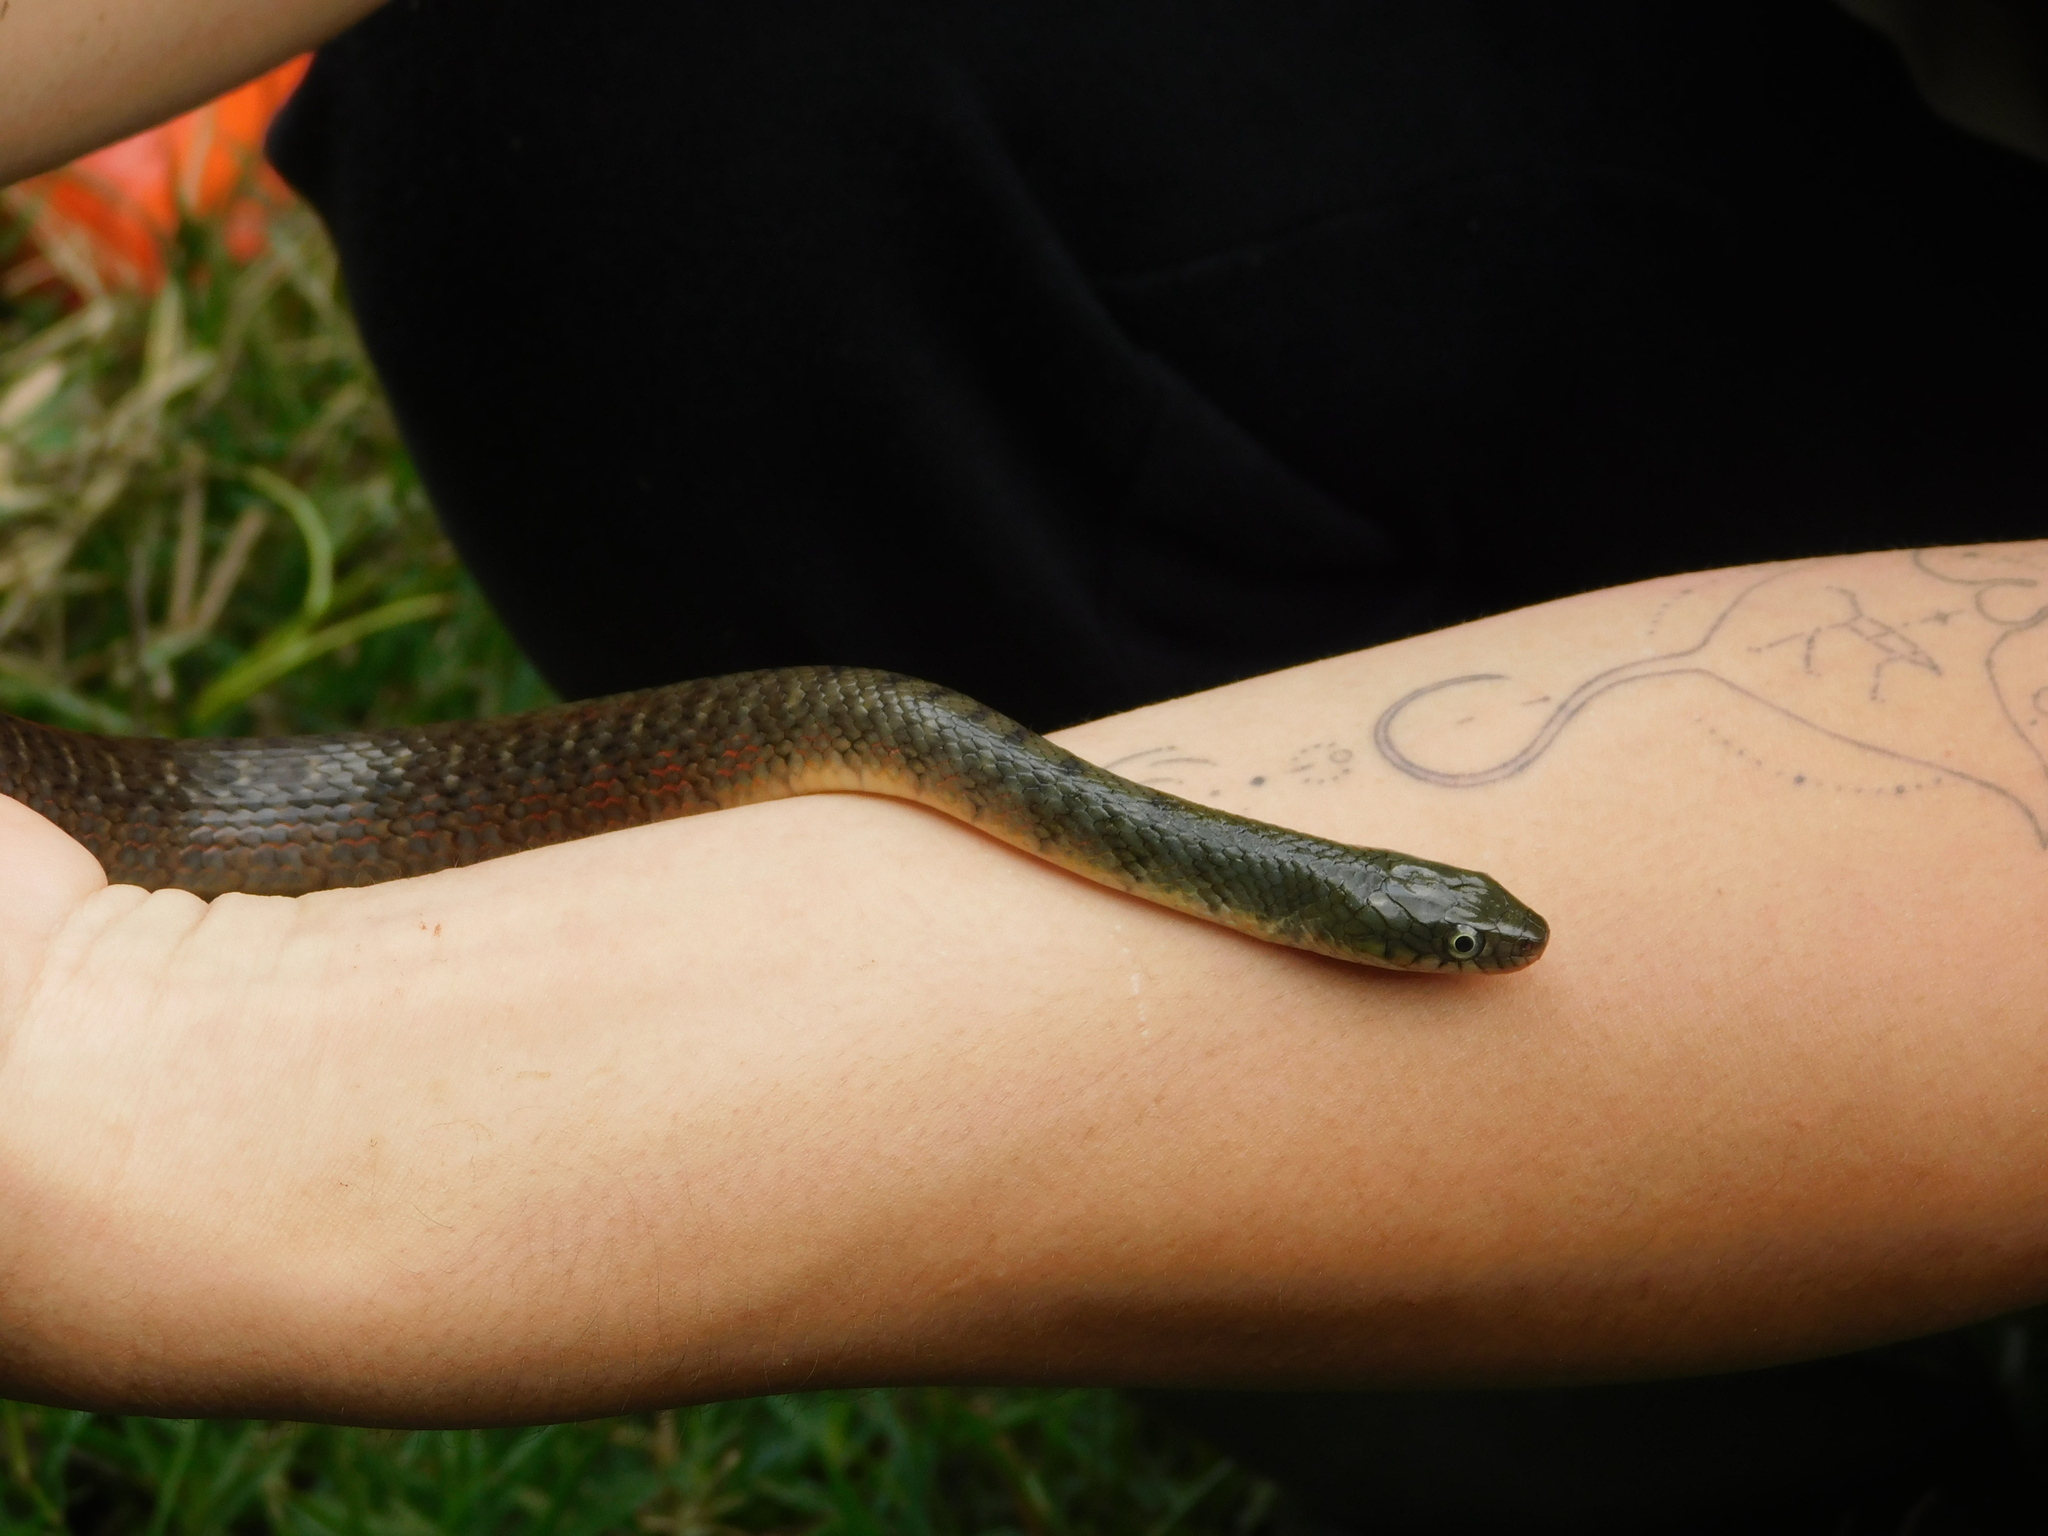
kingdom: Animalia
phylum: Chordata
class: Squamata
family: Colubridae
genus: Xenochrophis
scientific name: Xenochrophis trianguligerus
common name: Triangle keelback
